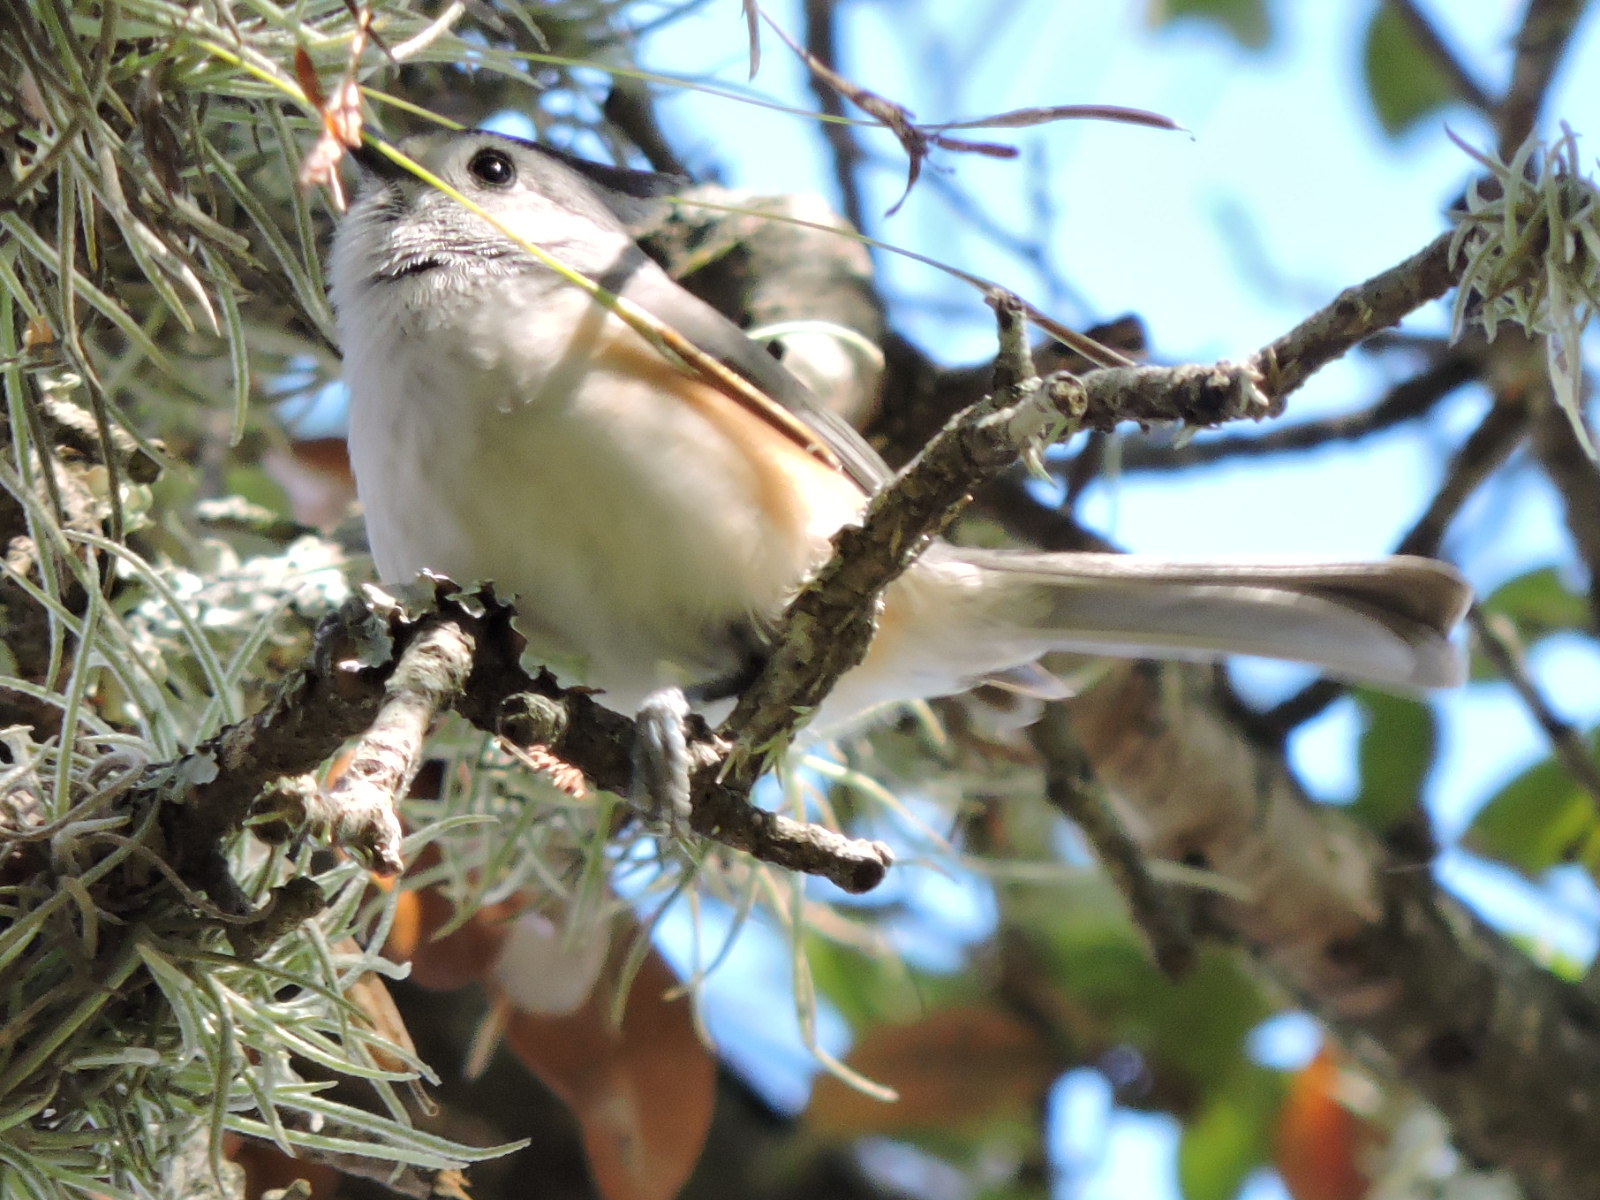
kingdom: Animalia
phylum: Chordata
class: Aves
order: Passeriformes
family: Paridae
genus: Baeolophus
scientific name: Baeolophus atricristatus
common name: Black-crested titmouse
